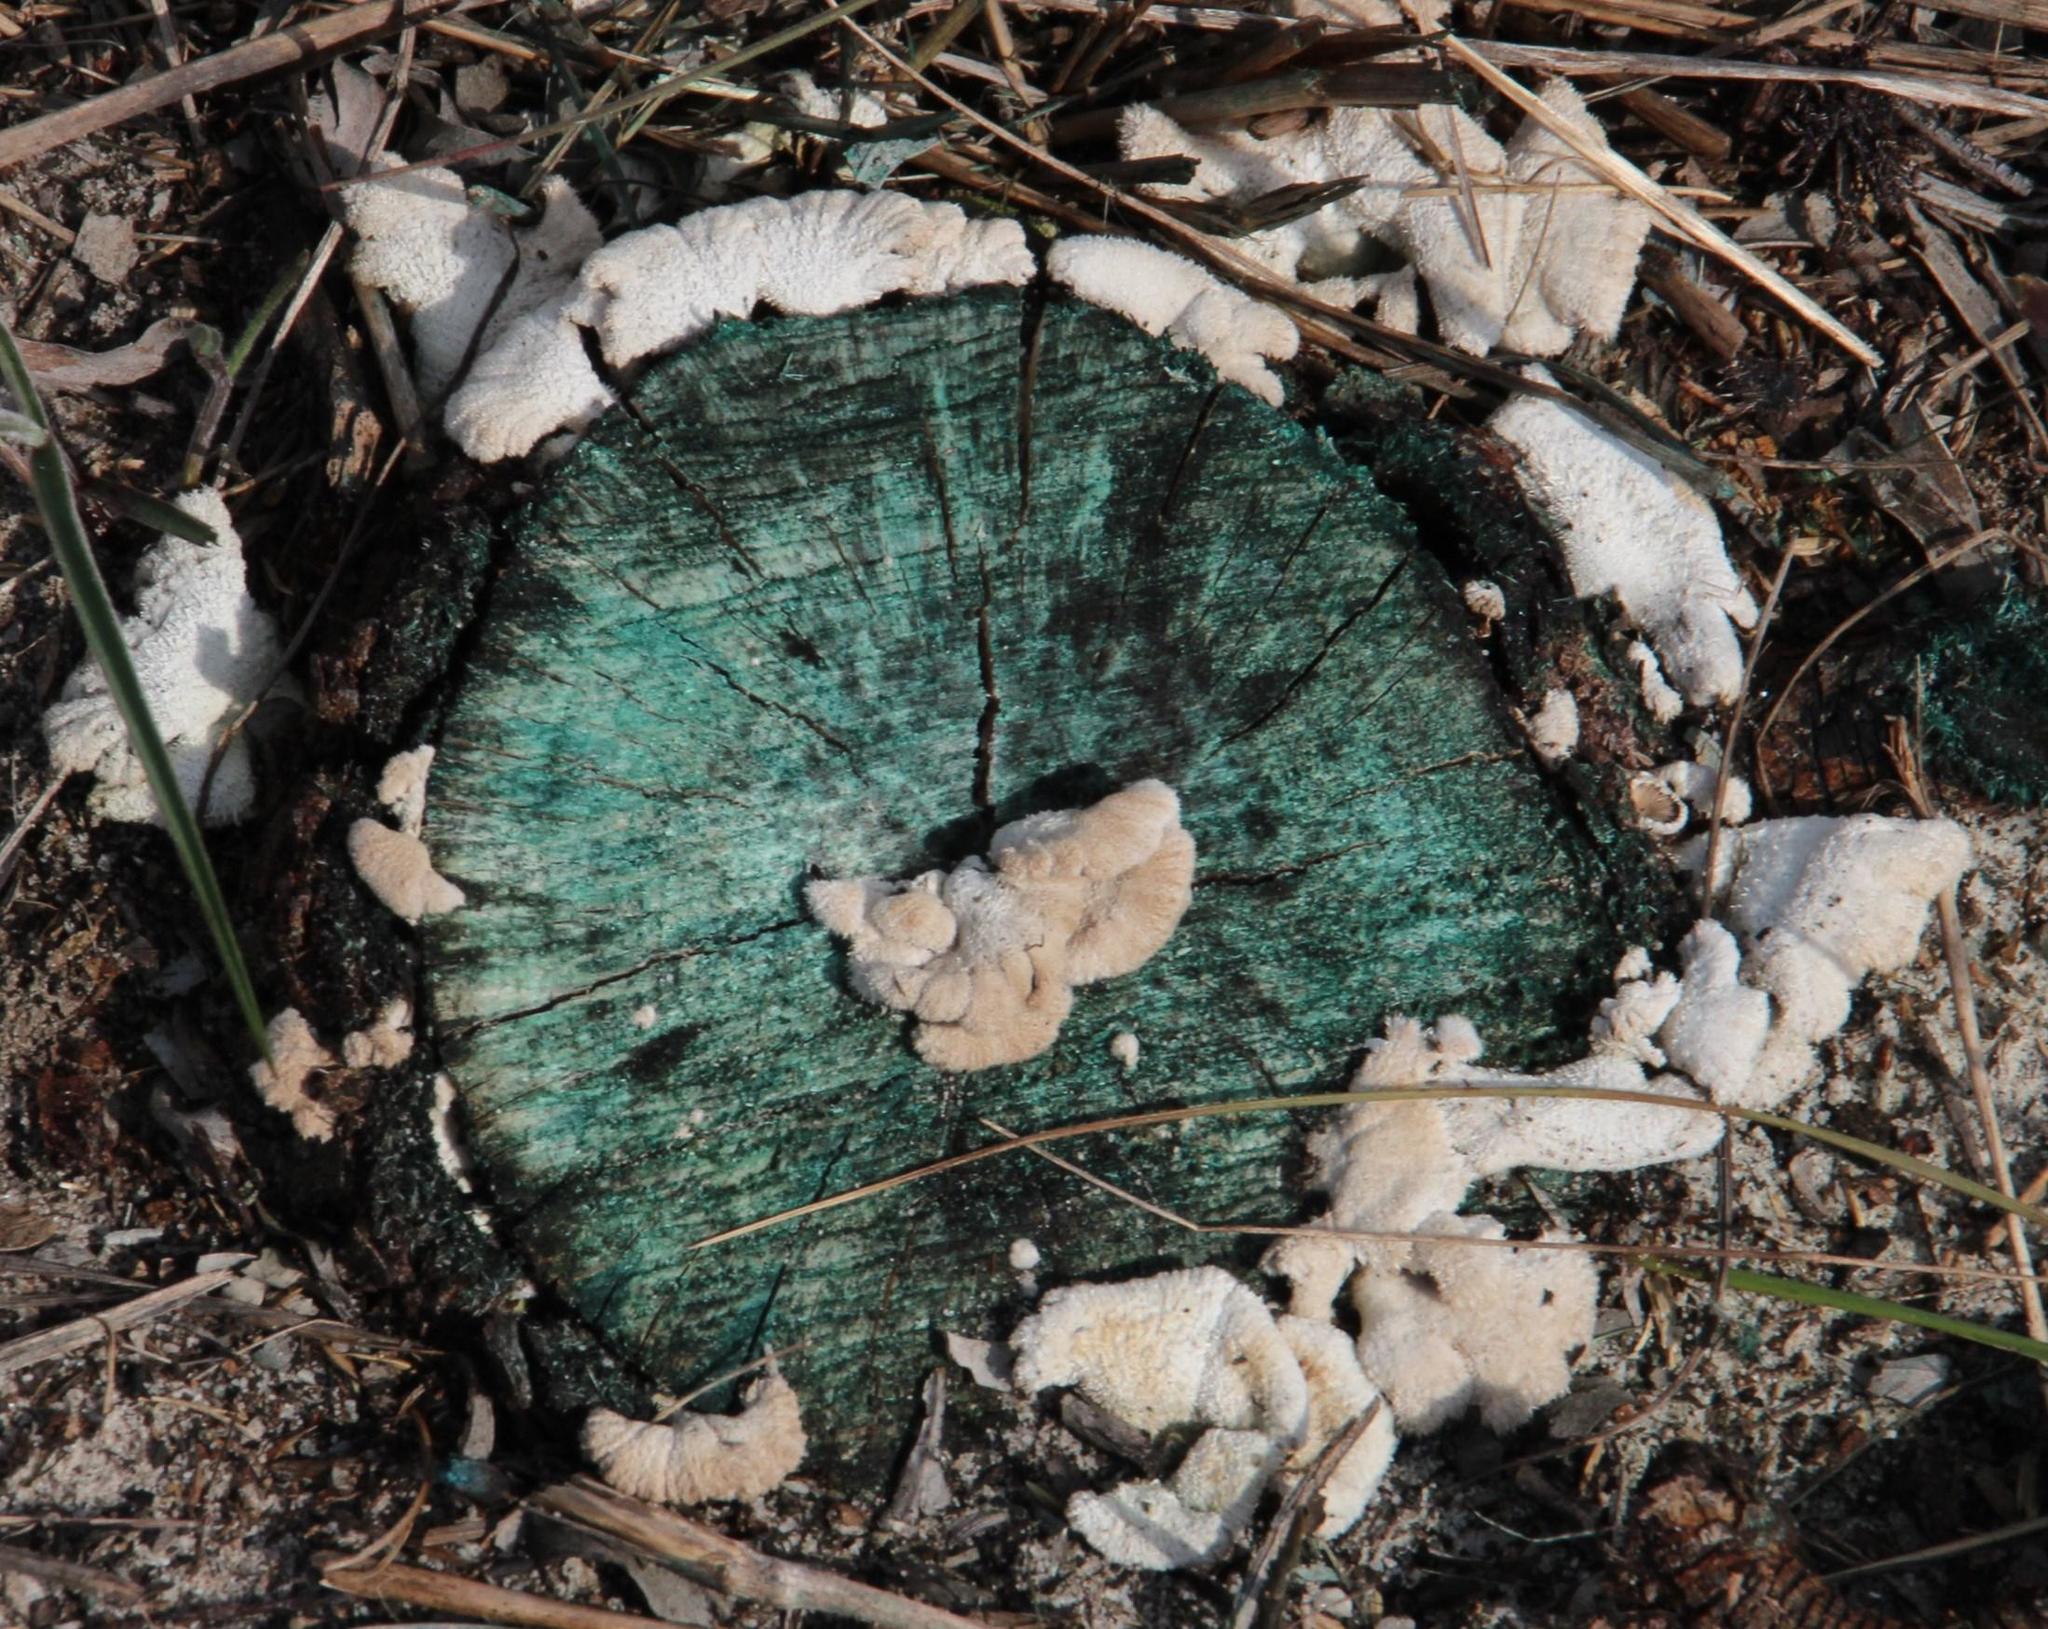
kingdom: Fungi
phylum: Basidiomycota
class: Agaricomycetes
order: Agaricales
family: Schizophyllaceae
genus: Schizophyllum
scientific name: Schizophyllum commune
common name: Common porecrust
